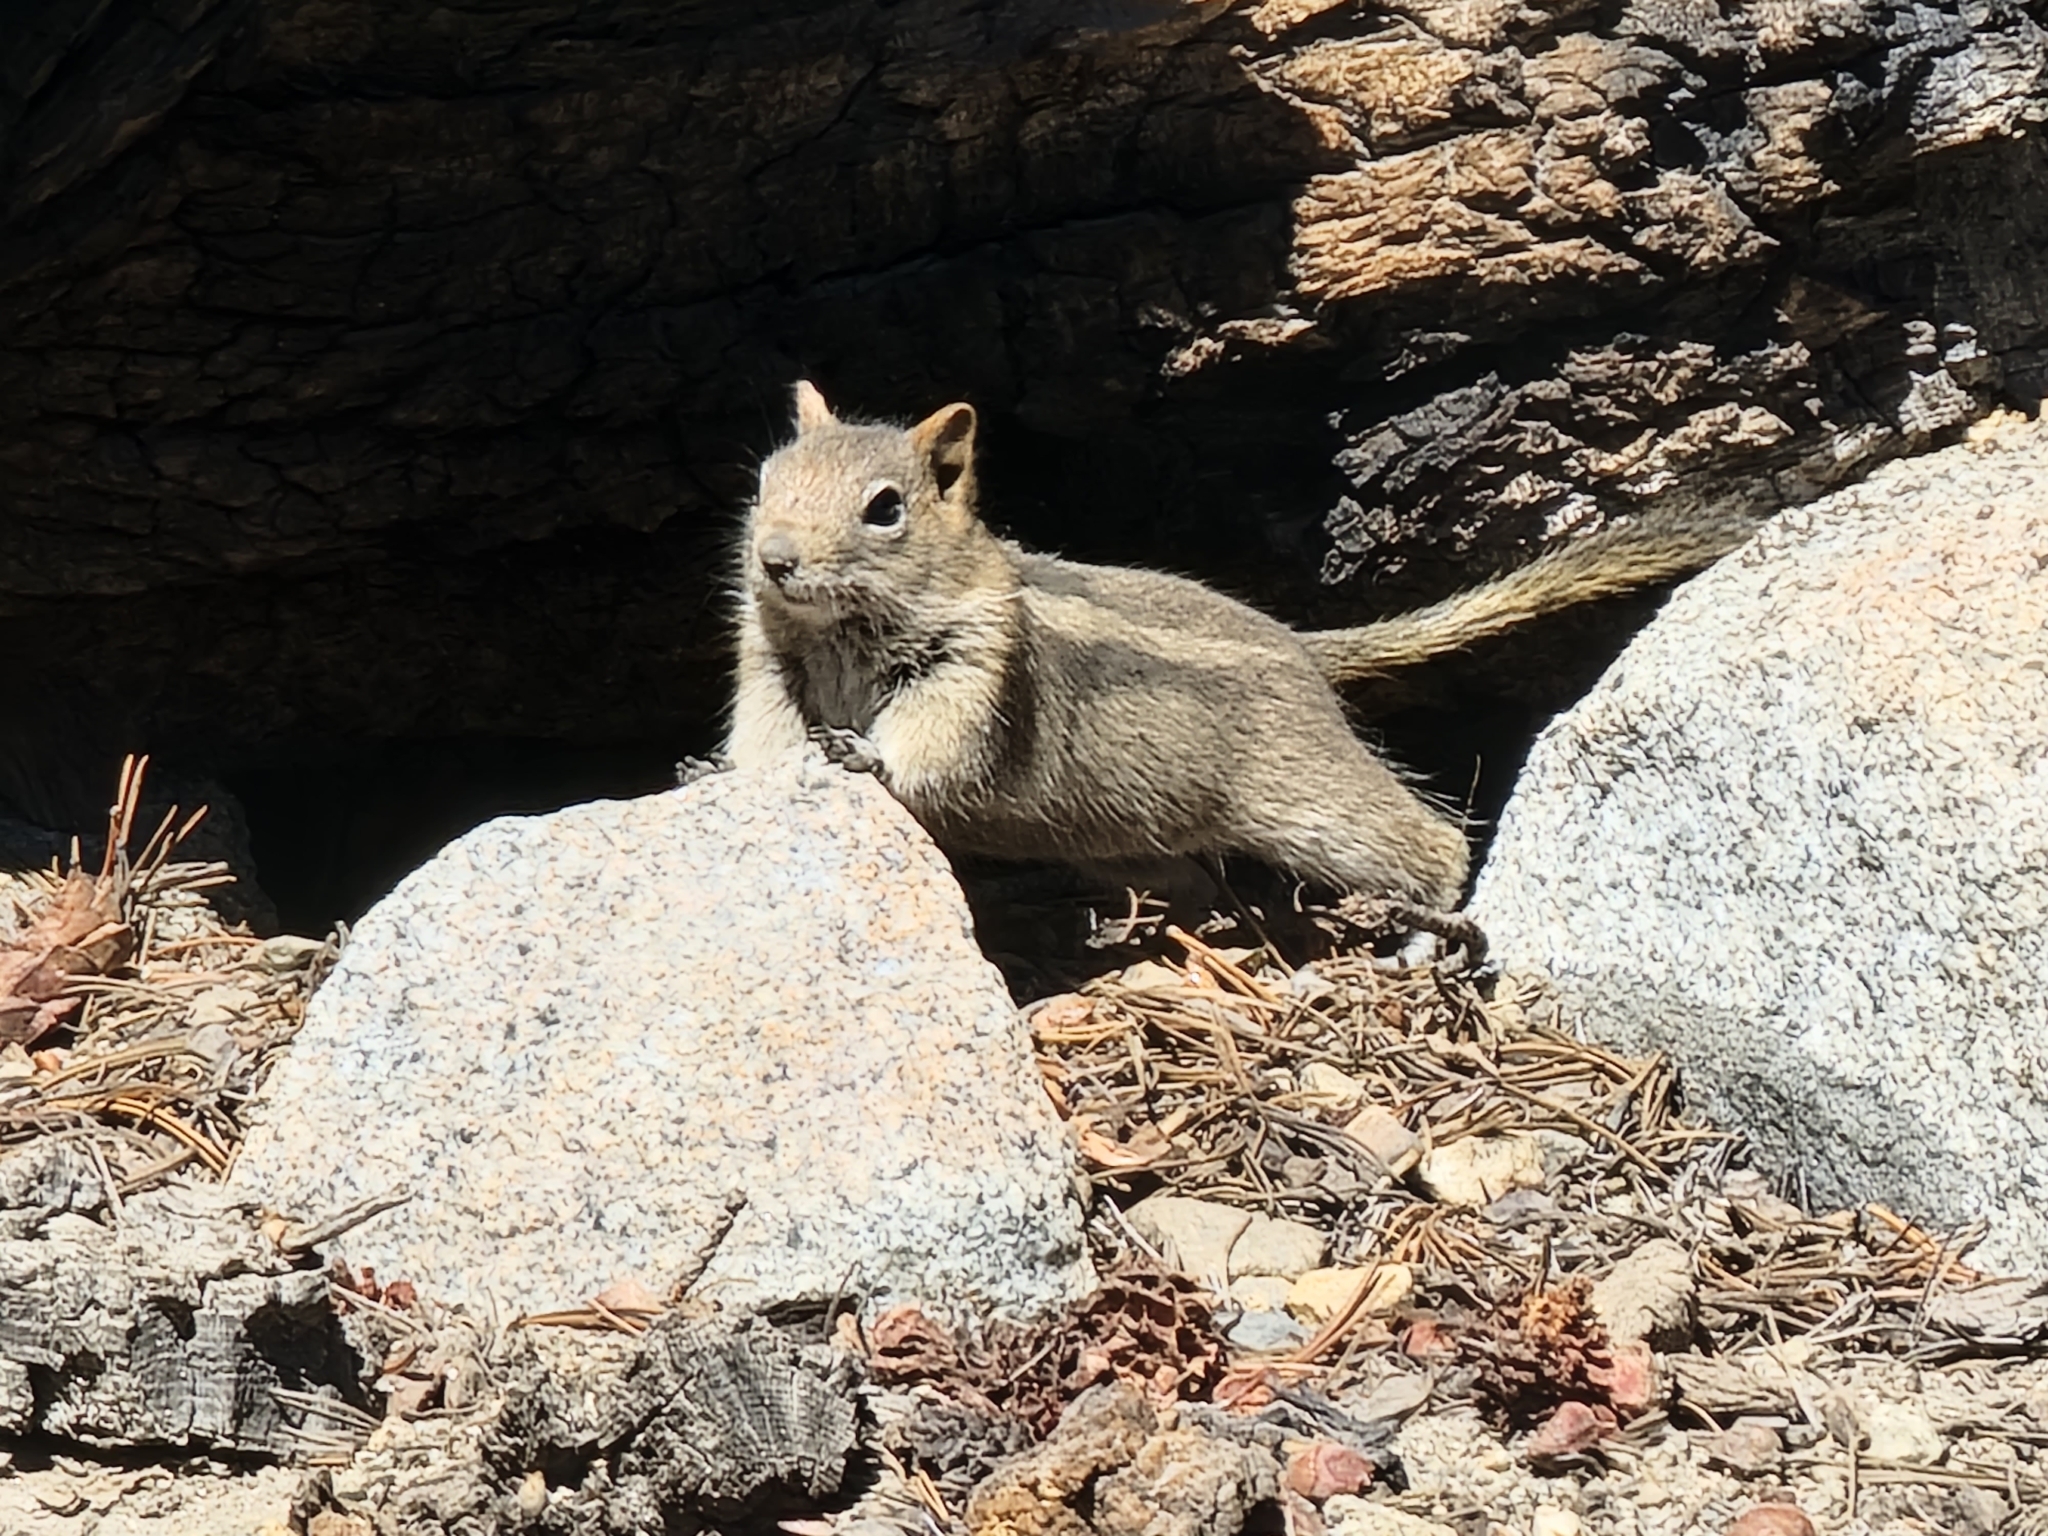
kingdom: Animalia
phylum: Chordata
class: Mammalia
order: Rodentia
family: Sciuridae
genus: Callospermophilus
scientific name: Callospermophilus lateralis
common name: Golden-mantled ground squirrel
